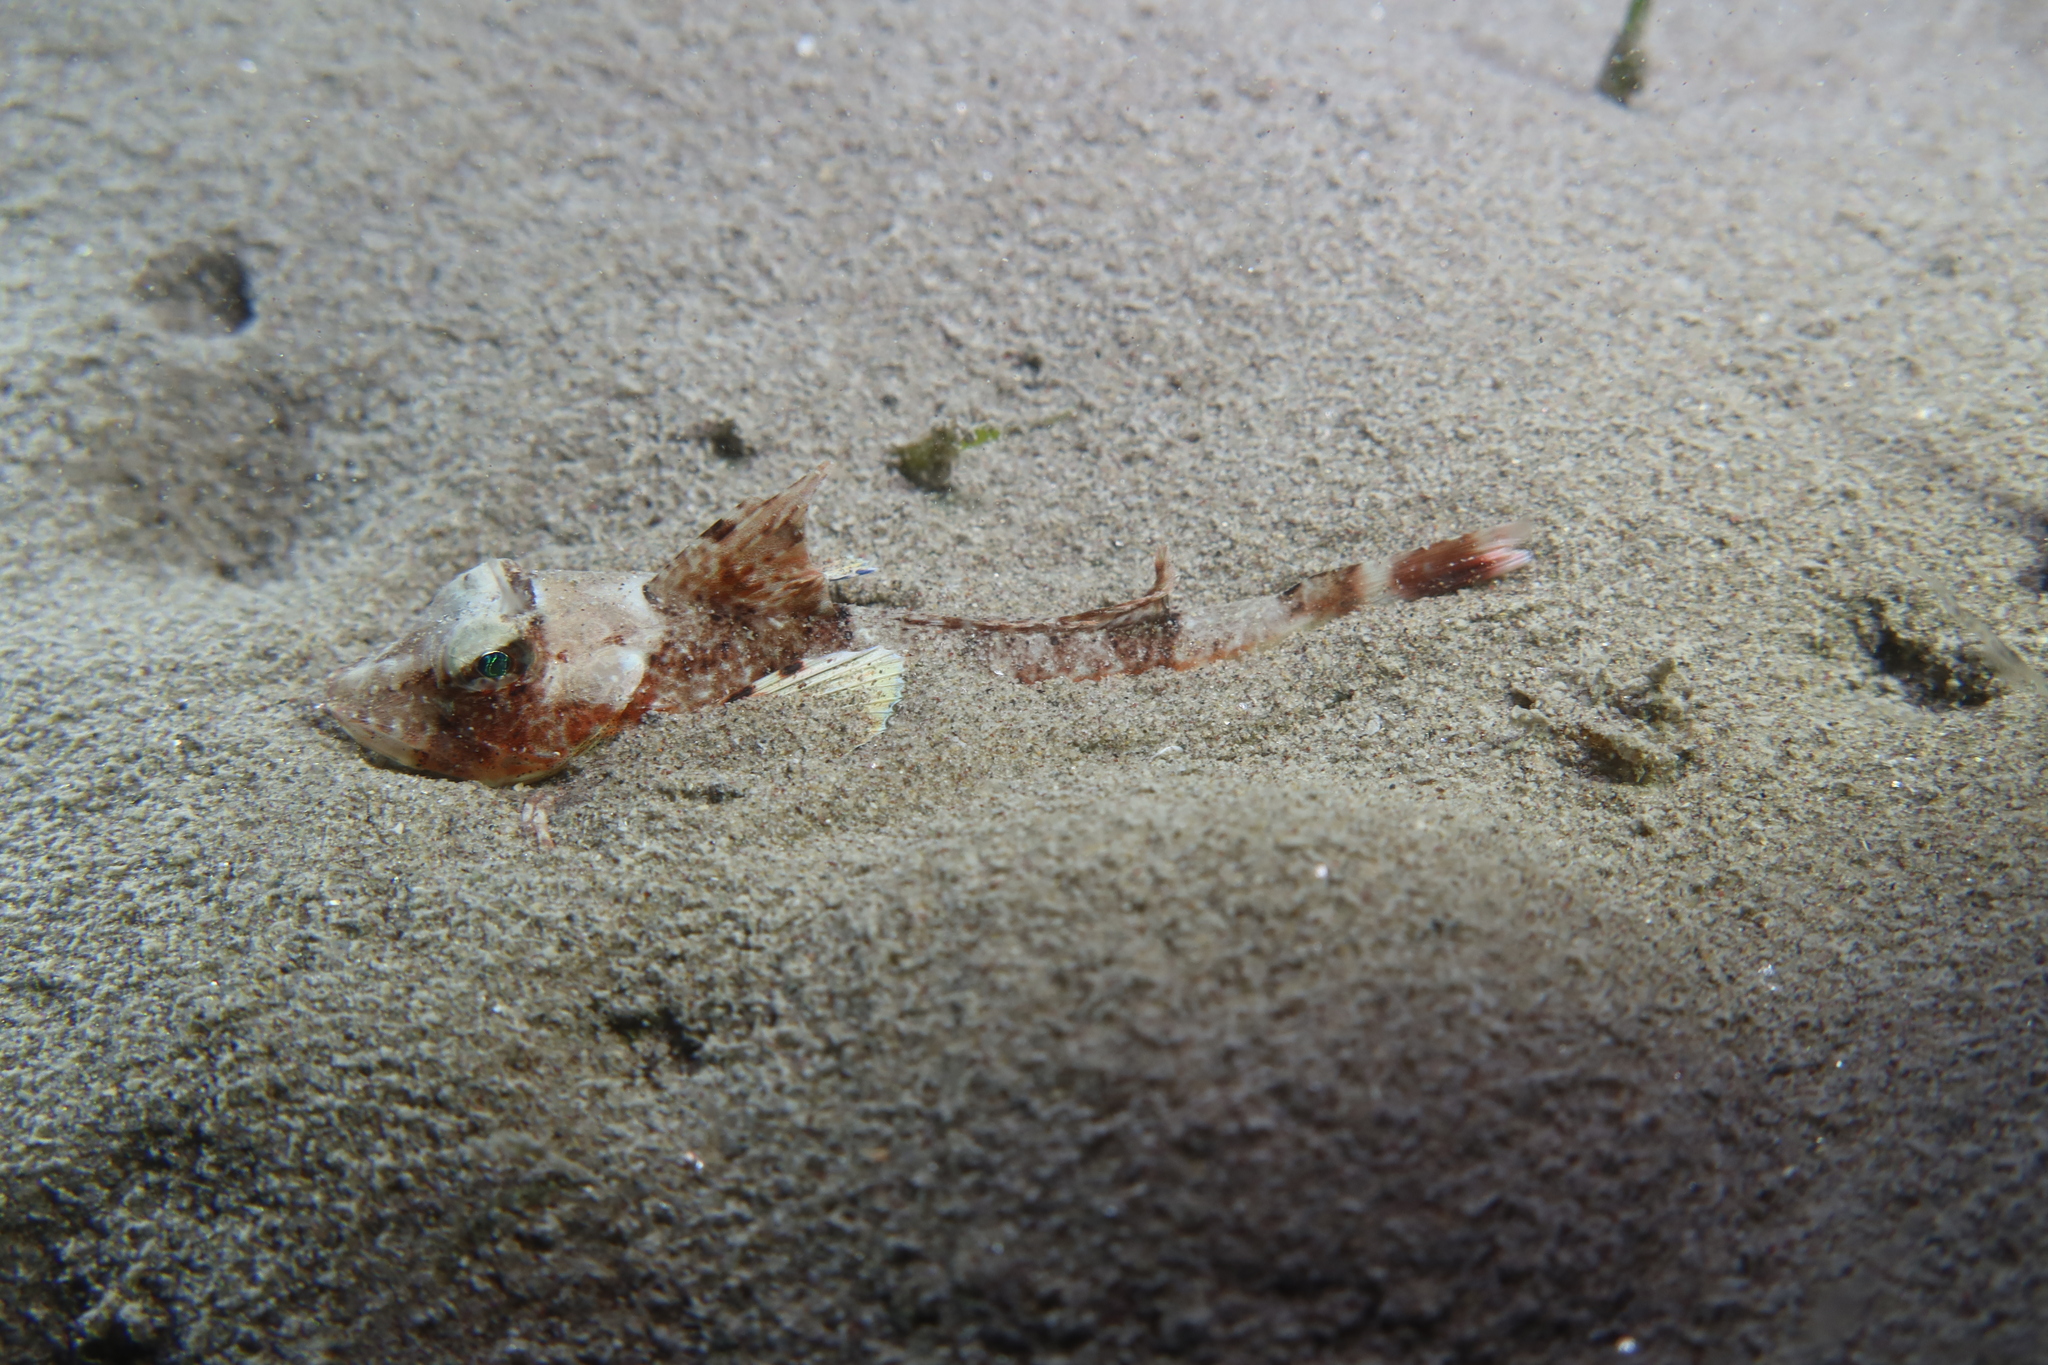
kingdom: Animalia
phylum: Chordata
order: Scorpaeniformes
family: Triglidae
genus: Chelidonichthys
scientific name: Chelidonichthys obscurus
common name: Long-finned gurnard
